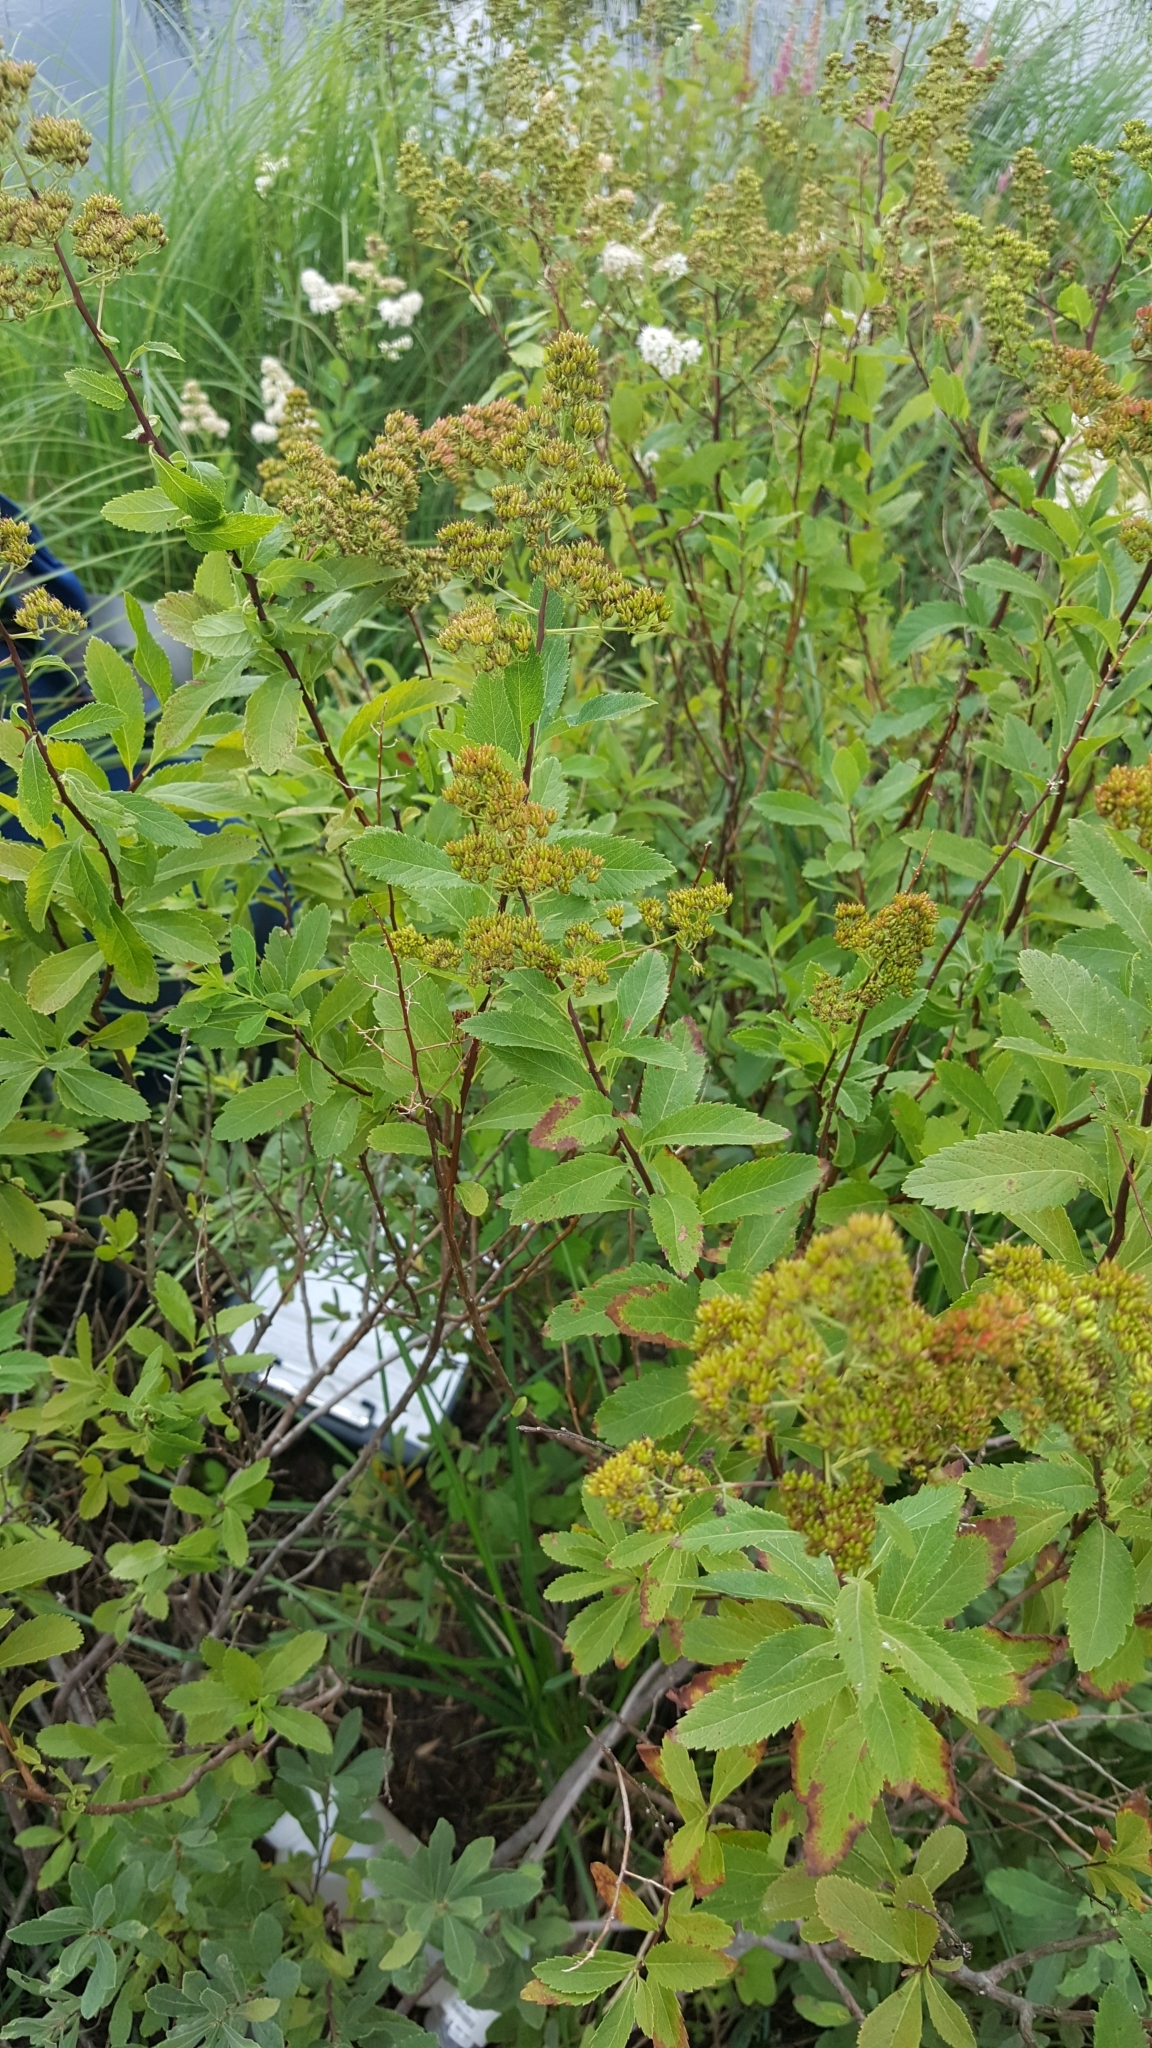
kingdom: Plantae
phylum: Tracheophyta
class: Magnoliopsida
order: Rosales
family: Rosaceae
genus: Spiraea
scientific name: Spiraea alba
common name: Pale bridewort
